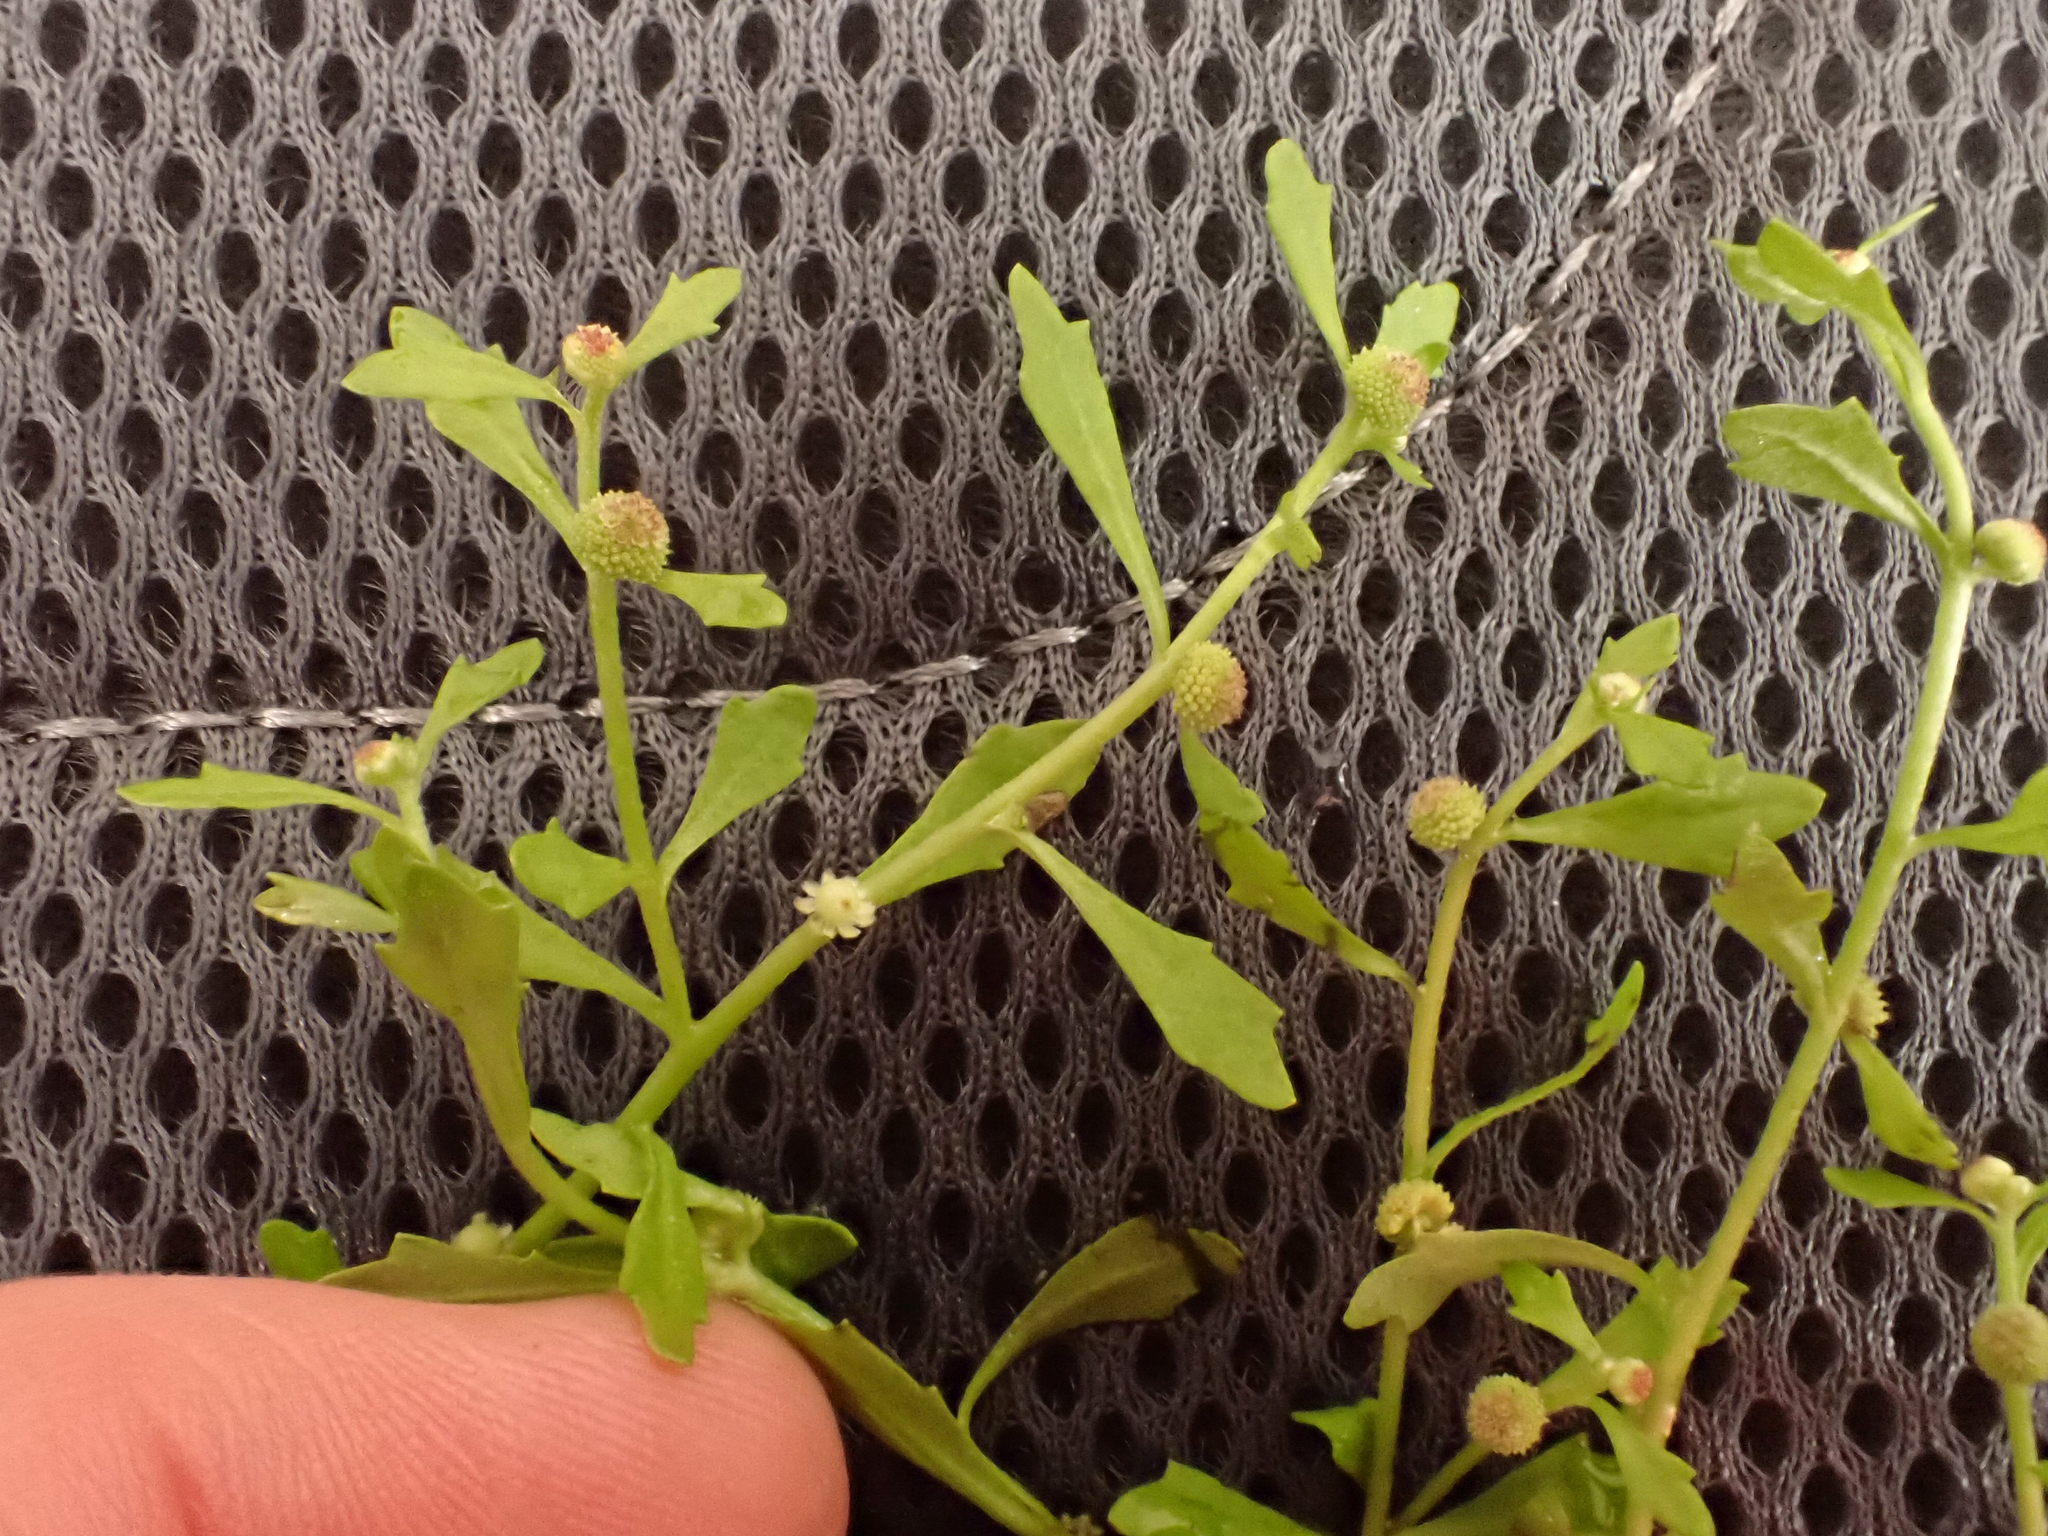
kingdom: Plantae
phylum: Tracheophyta
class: Magnoliopsida
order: Asterales
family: Asteraceae
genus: Centipeda
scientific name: Centipeda minima
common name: Spreading sneezeweed
